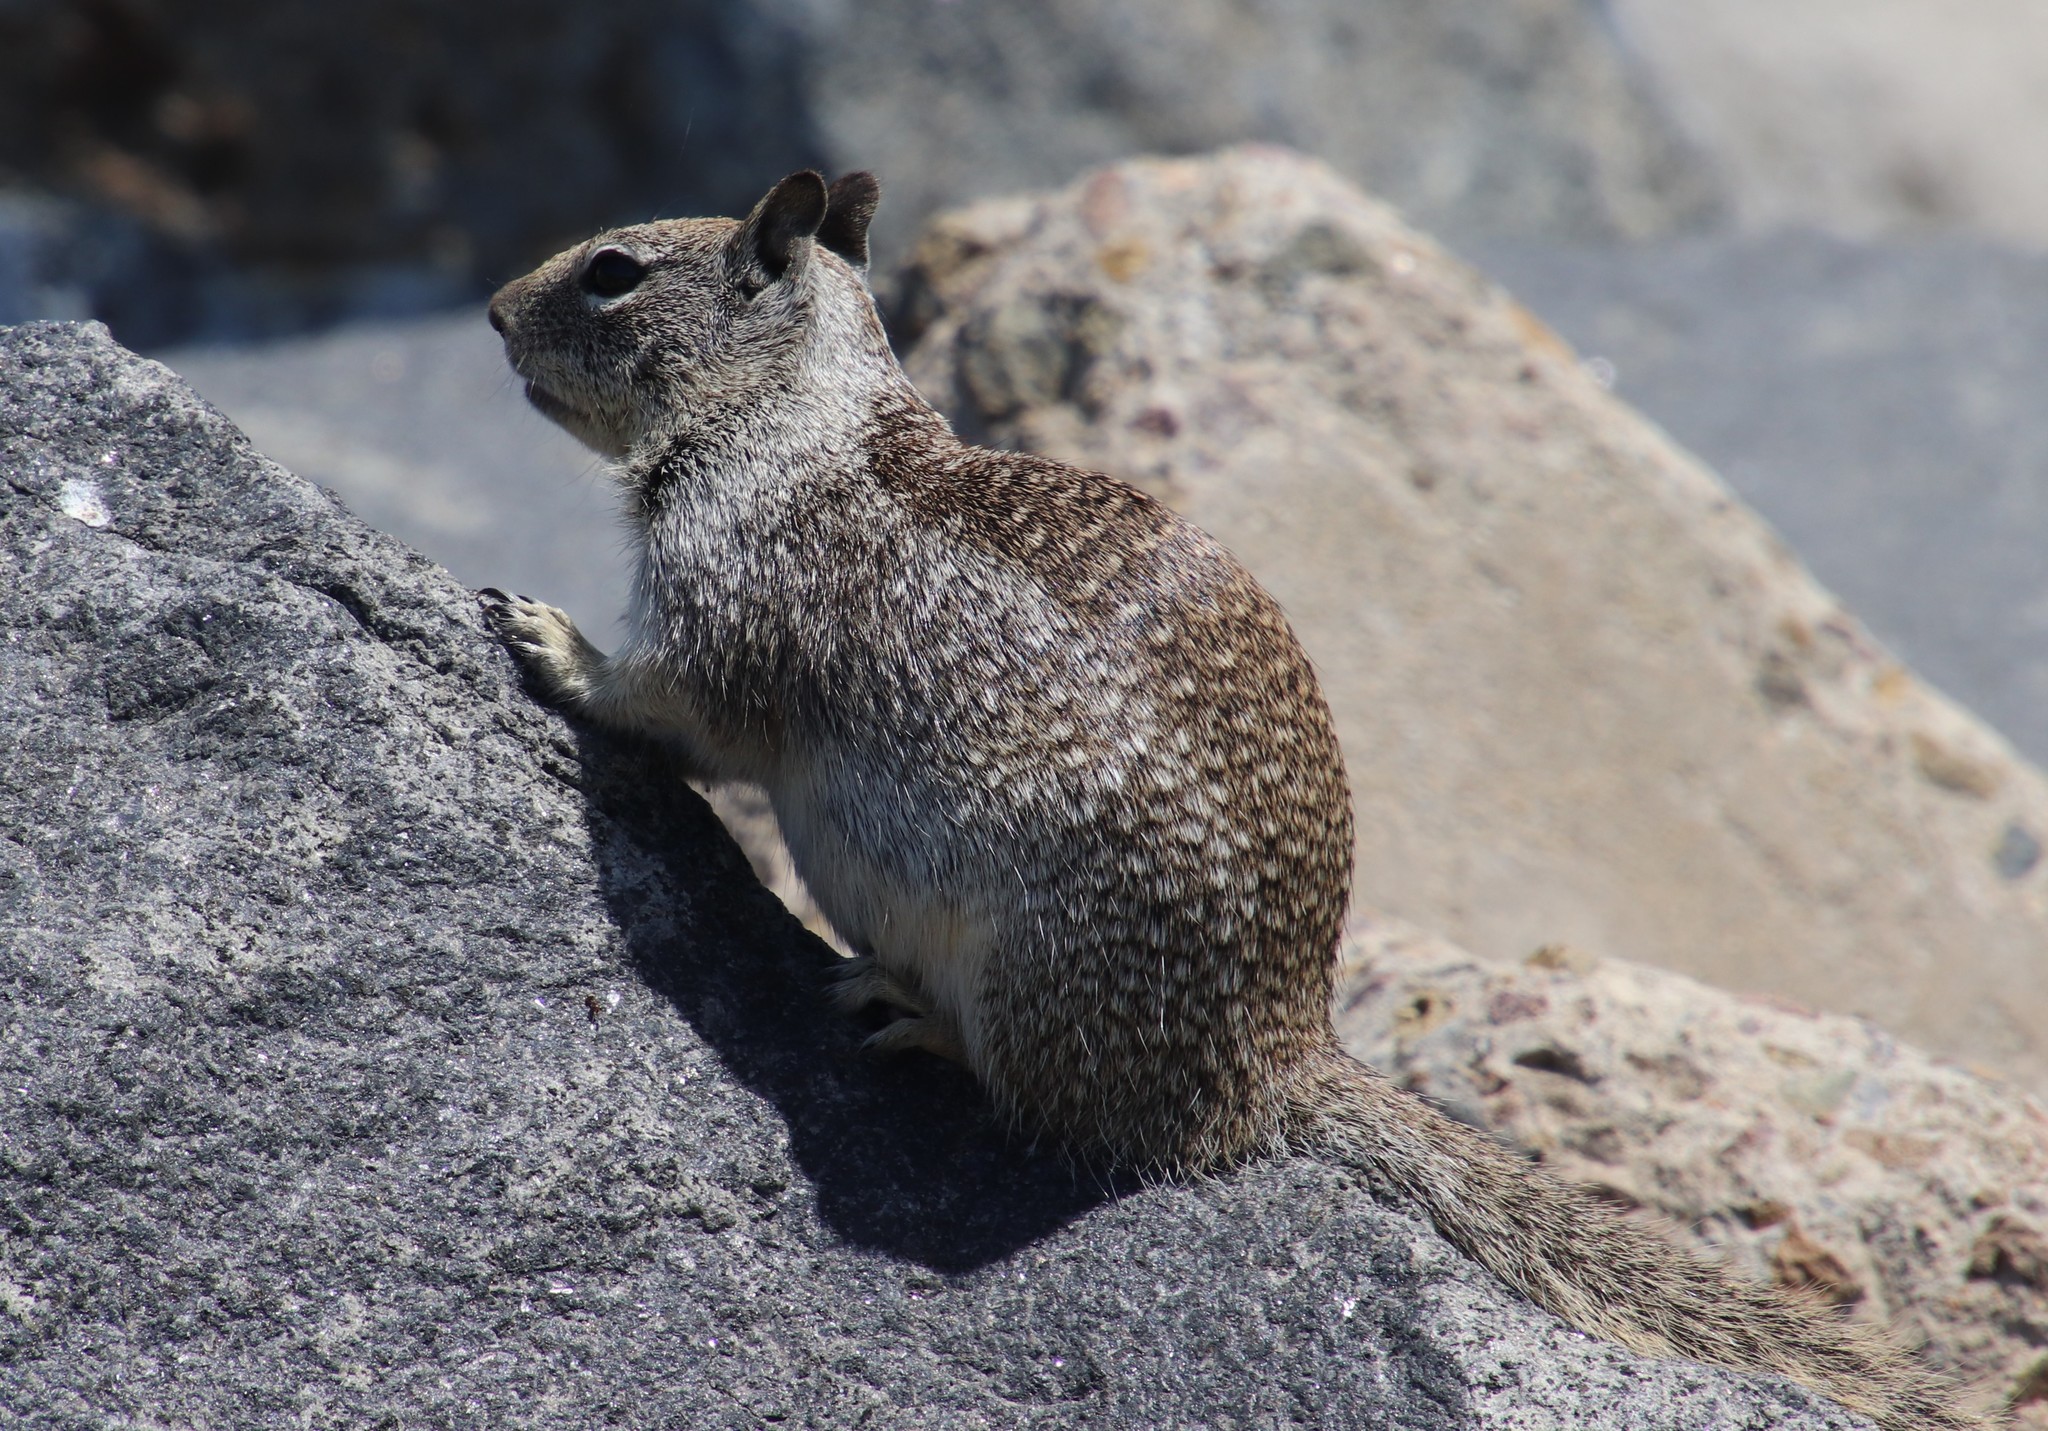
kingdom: Animalia
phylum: Chordata
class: Mammalia
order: Rodentia
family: Sciuridae
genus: Otospermophilus
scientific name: Otospermophilus beecheyi
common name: California ground squirrel
